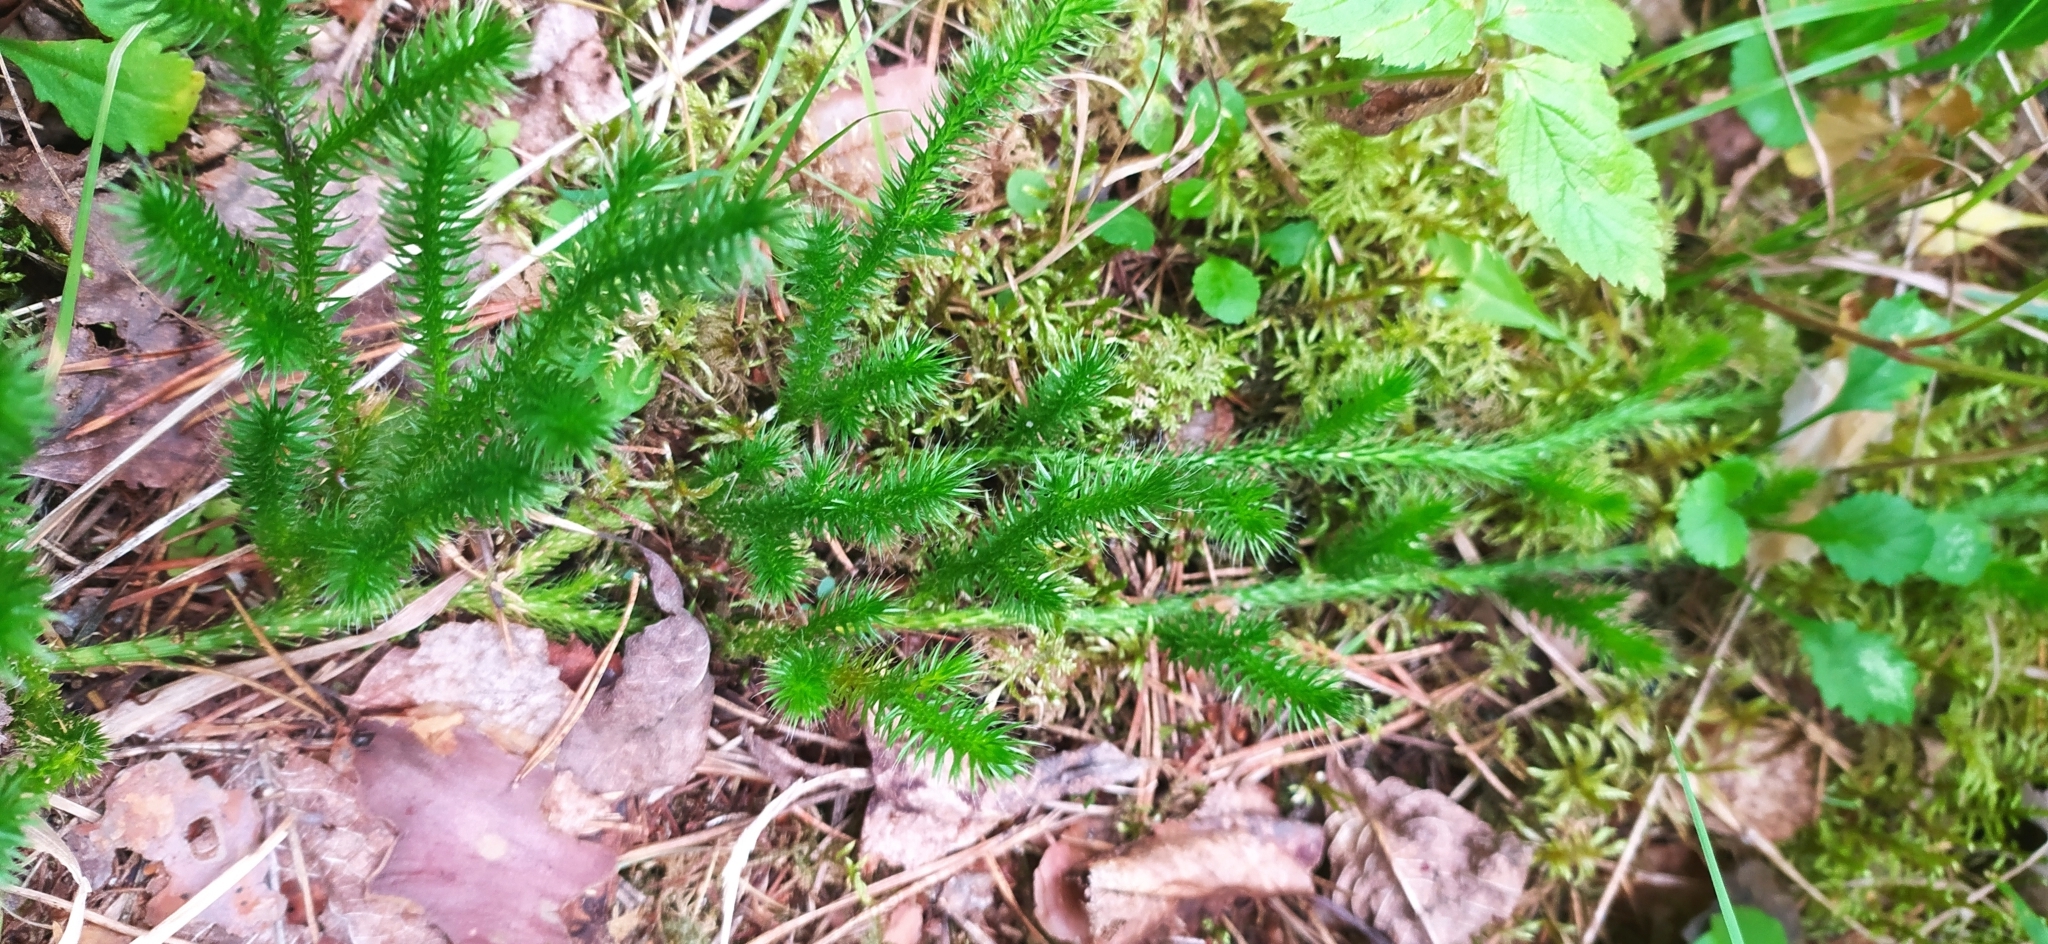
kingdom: Plantae
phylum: Tracheophyta
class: Lycopodiopsida
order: Lycopodiales
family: Lycopodiaceae
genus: Lycopodium
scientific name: Lycopodium clavatum
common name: Stag's-horn clubmoss
